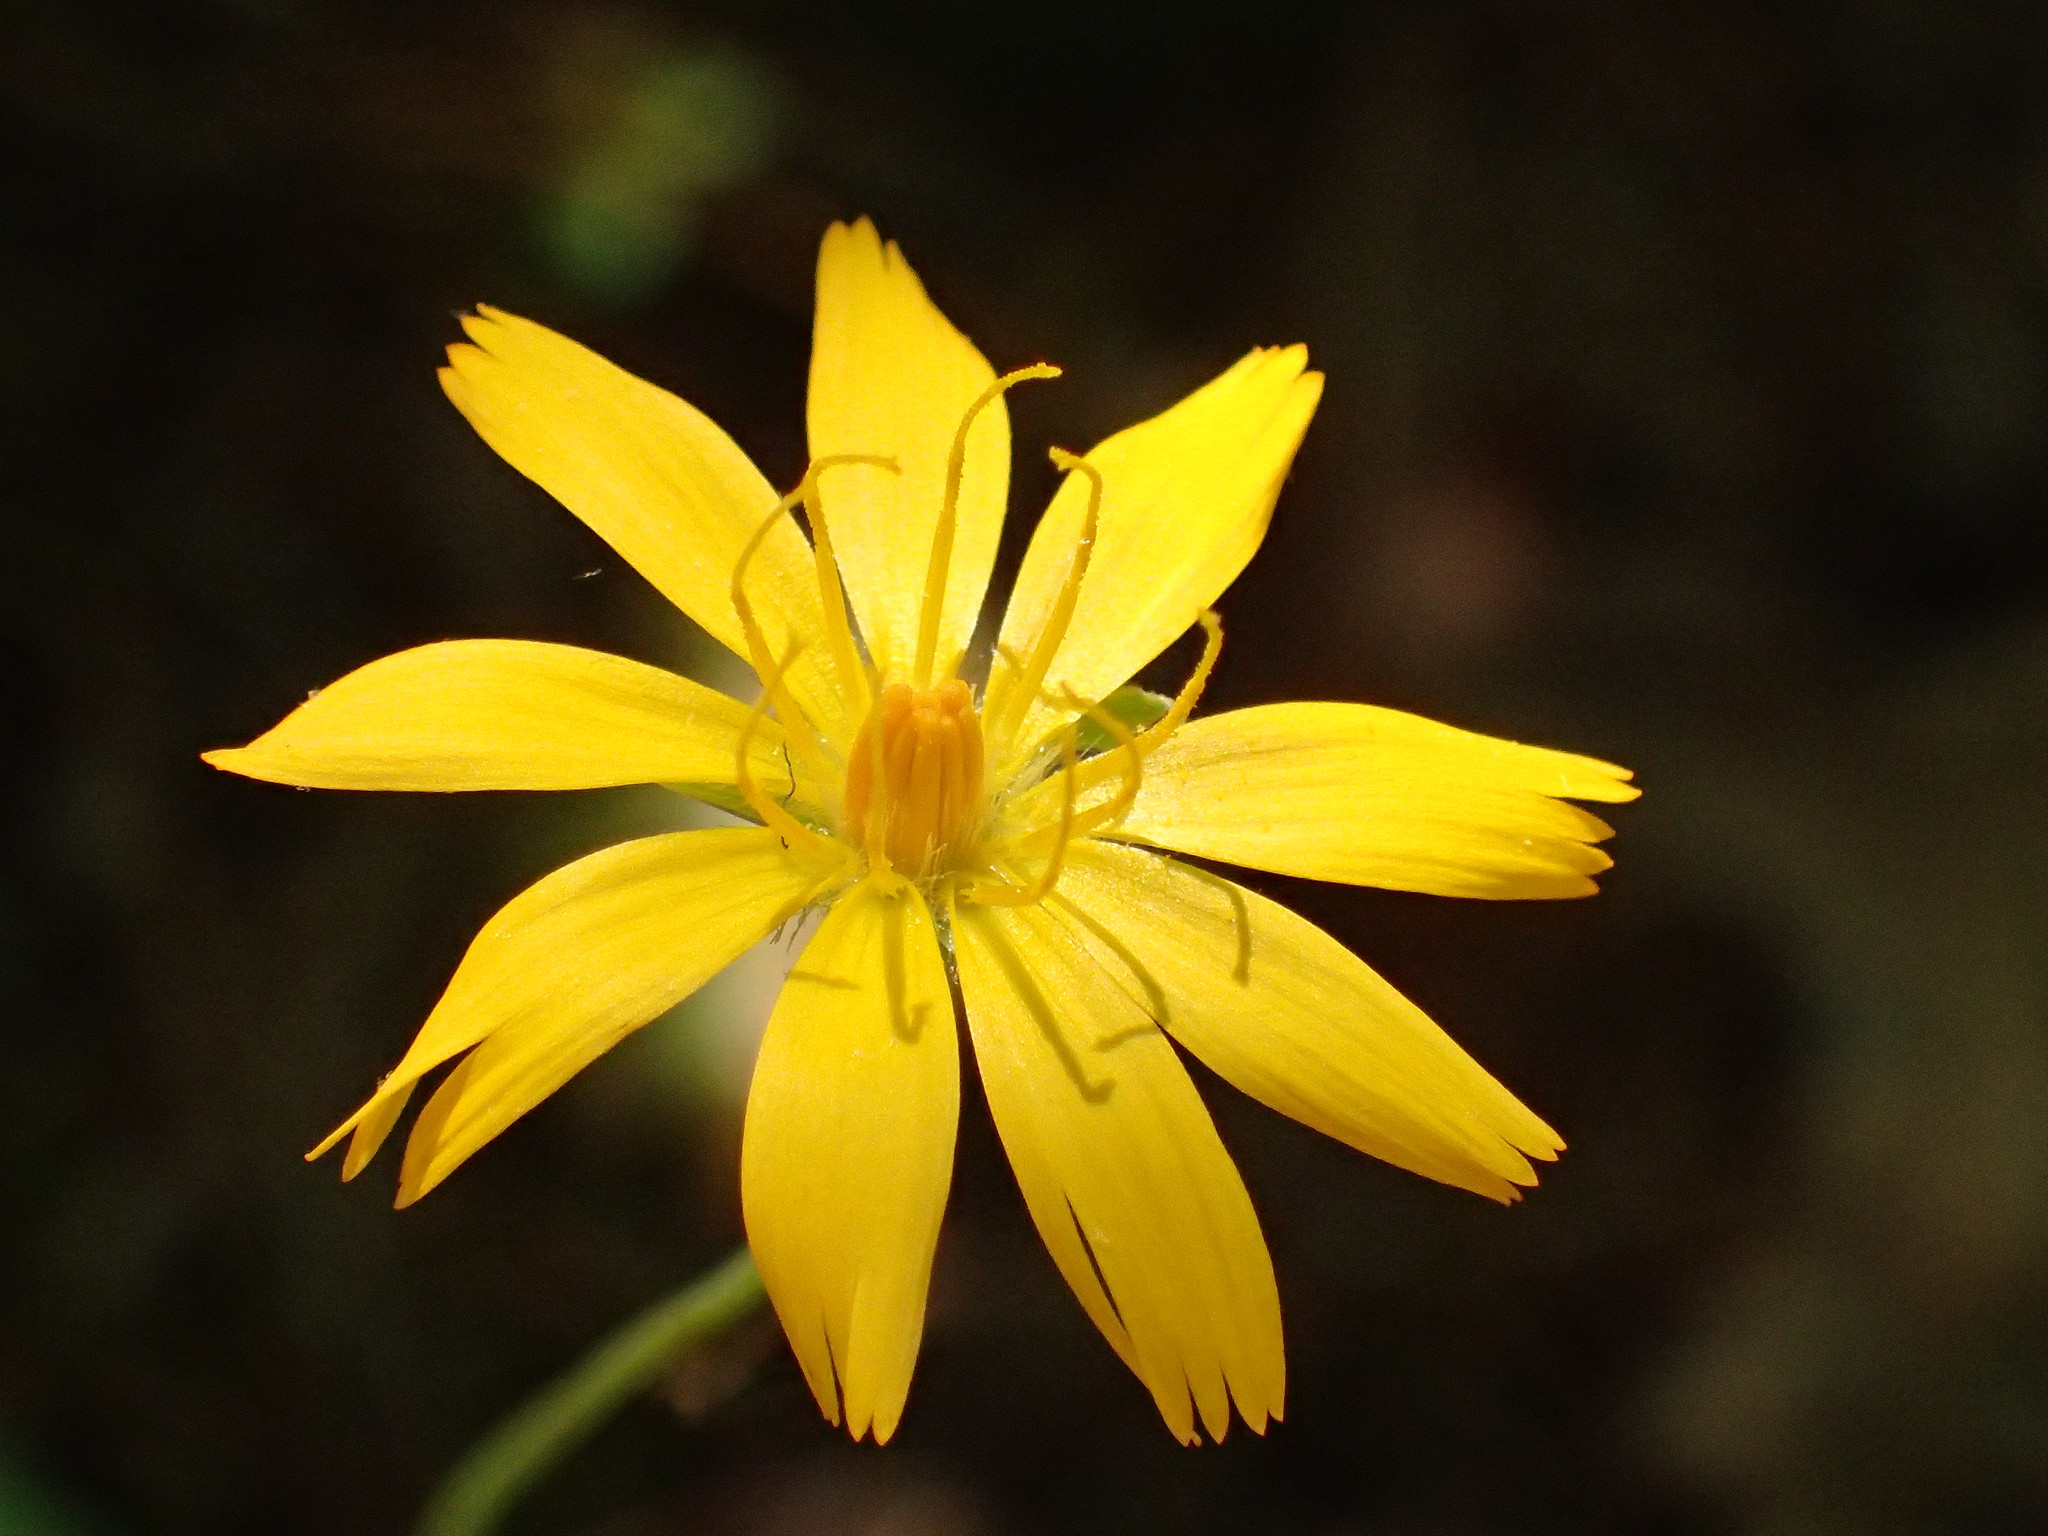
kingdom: Plantae
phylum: Tracheophyta
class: Magnoliopsida
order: Asterales
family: Asteraceae
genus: Krigia
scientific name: Krigia biflora
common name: Orange dwarf-dandelion
